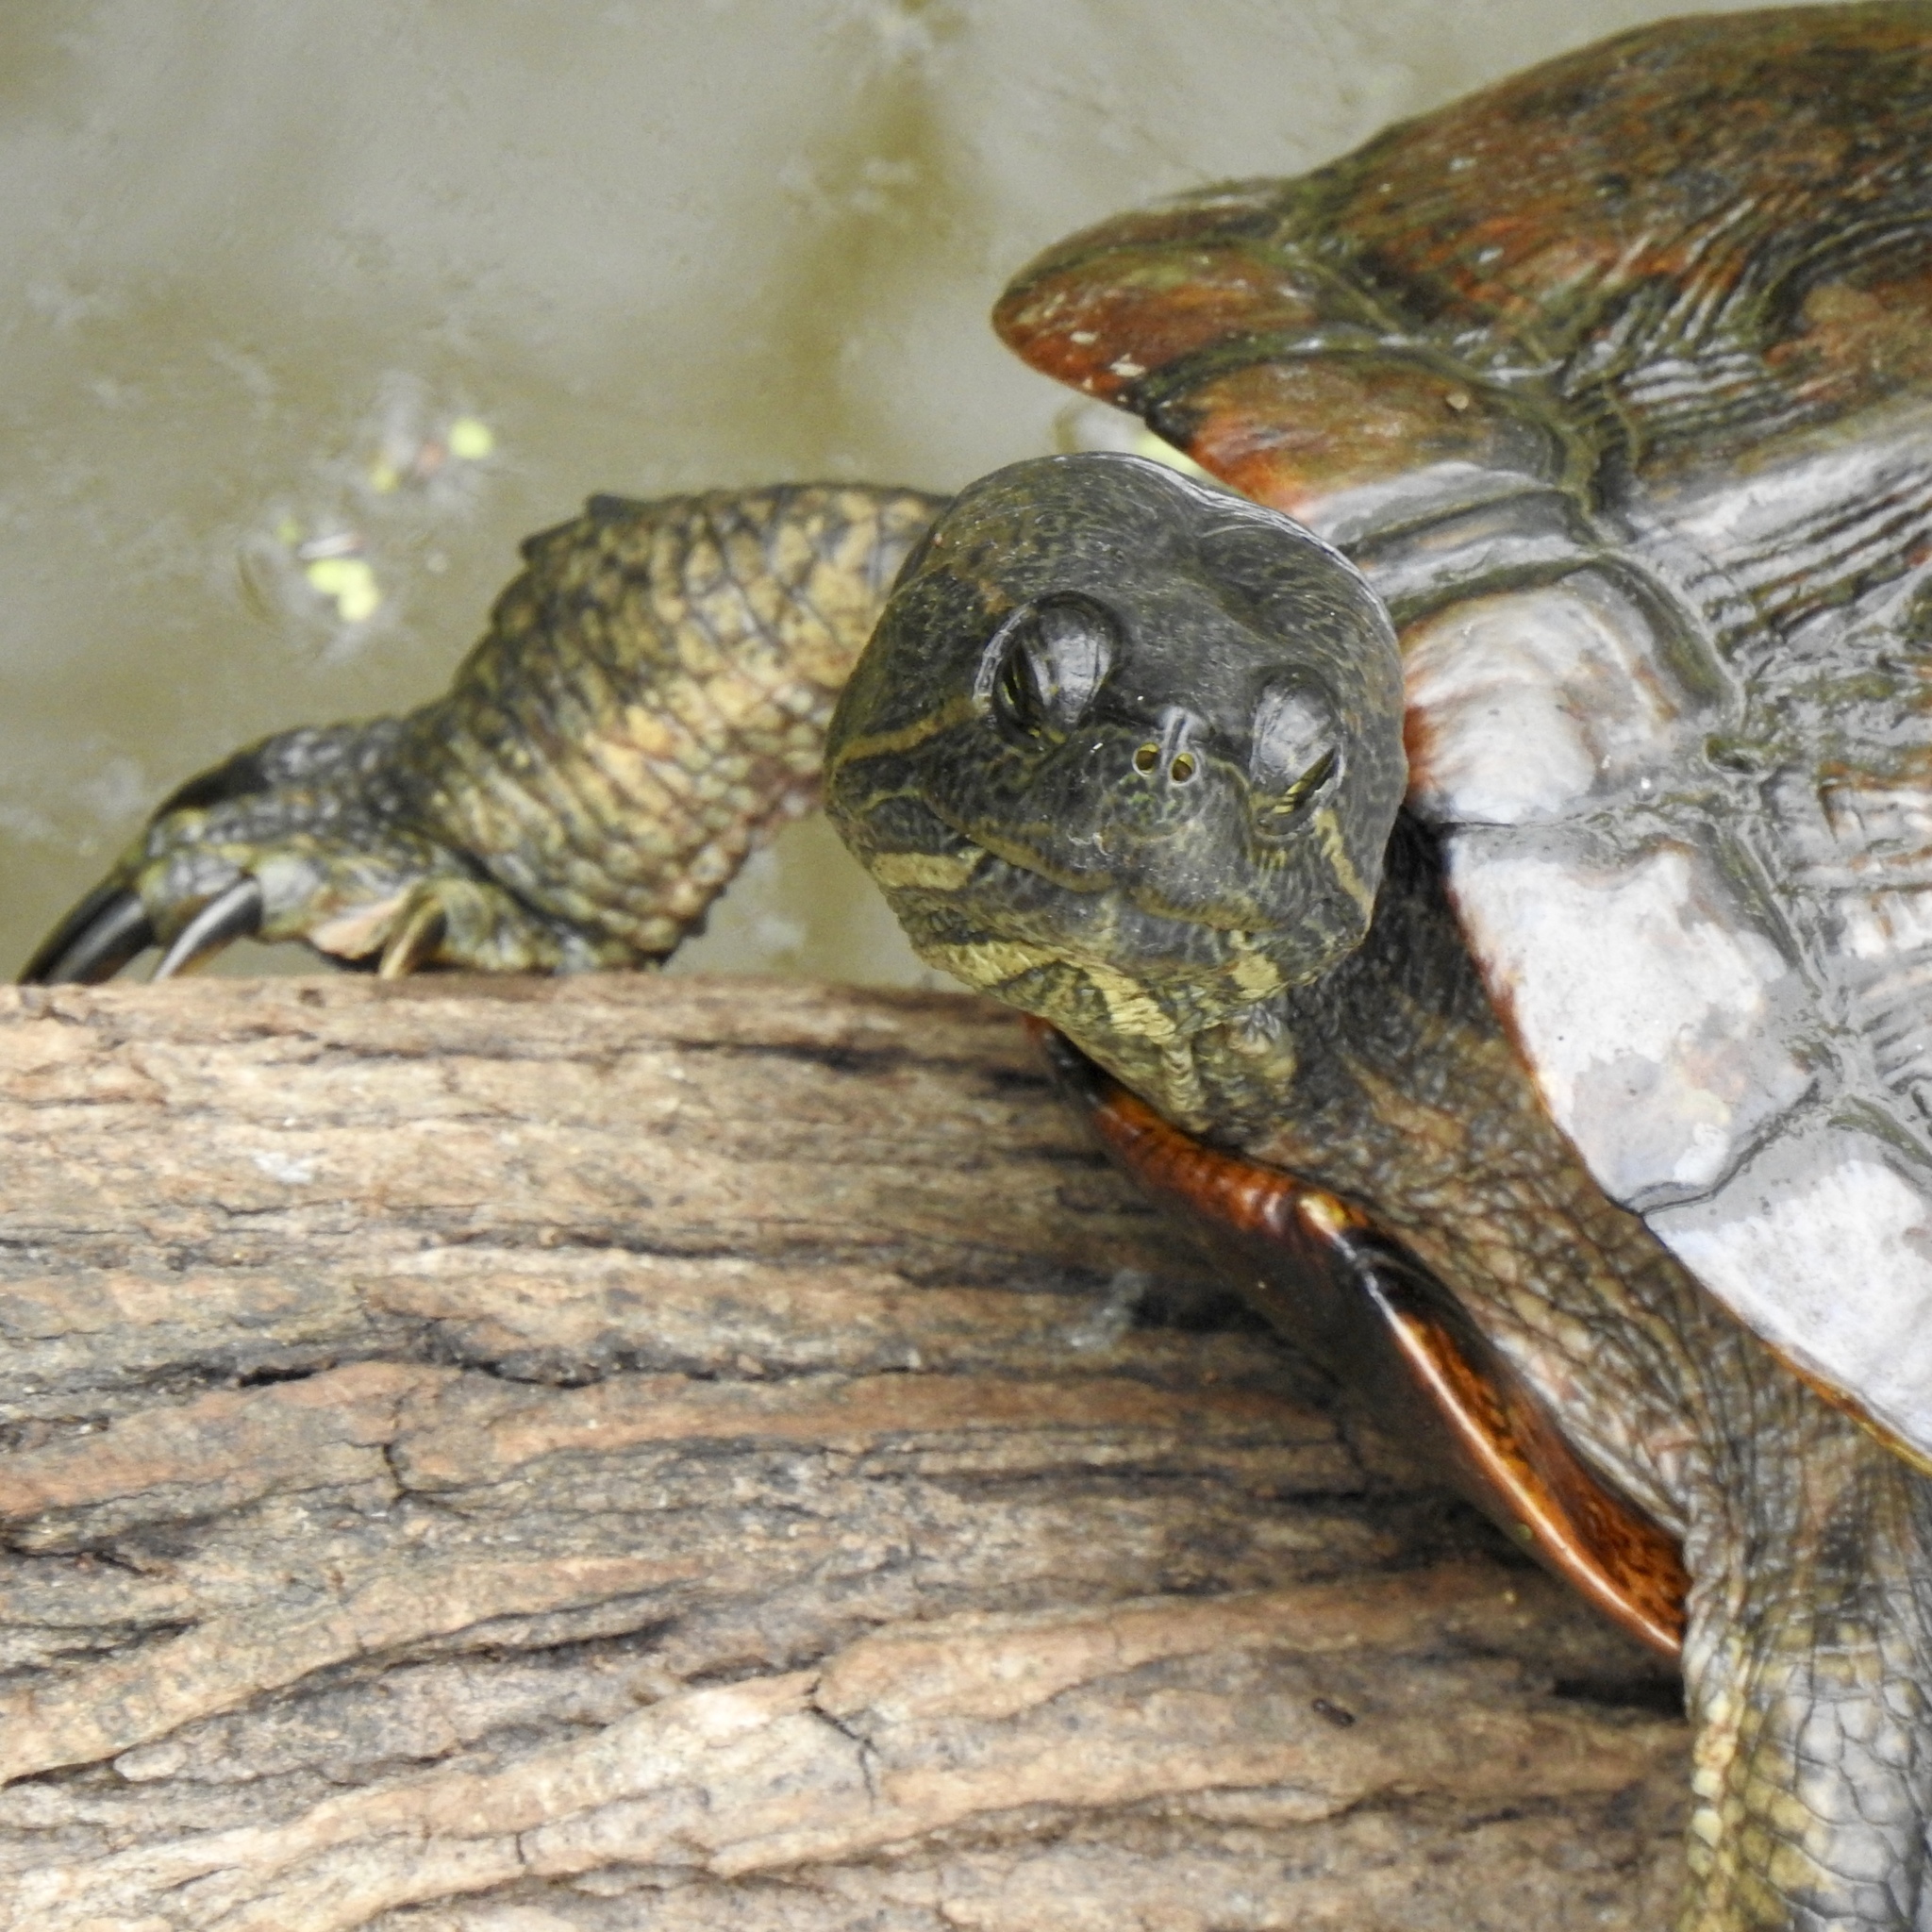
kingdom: Animalia
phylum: Chordata
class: Testudines
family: Emydidae
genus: Trachemys
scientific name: Trachemys scripta
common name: Slider
